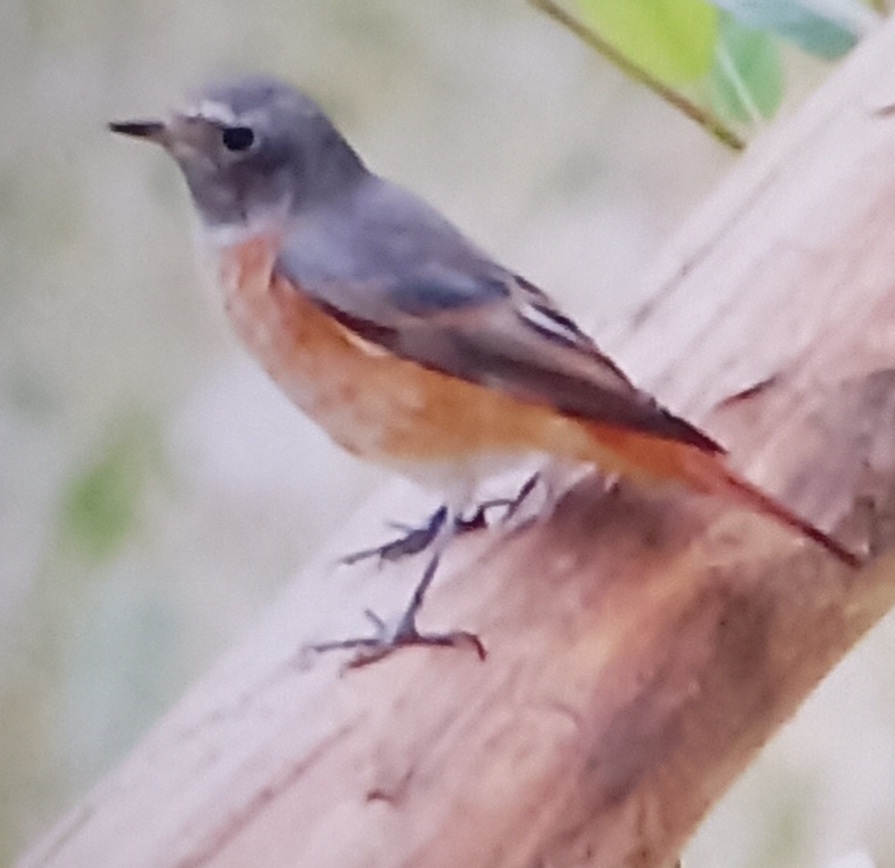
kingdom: Animalia
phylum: Chordata
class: Aves
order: Passeriformes
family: Muscicapidae
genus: Phoenicurus
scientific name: Phoenicurus phoenicurus
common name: Common redstart
